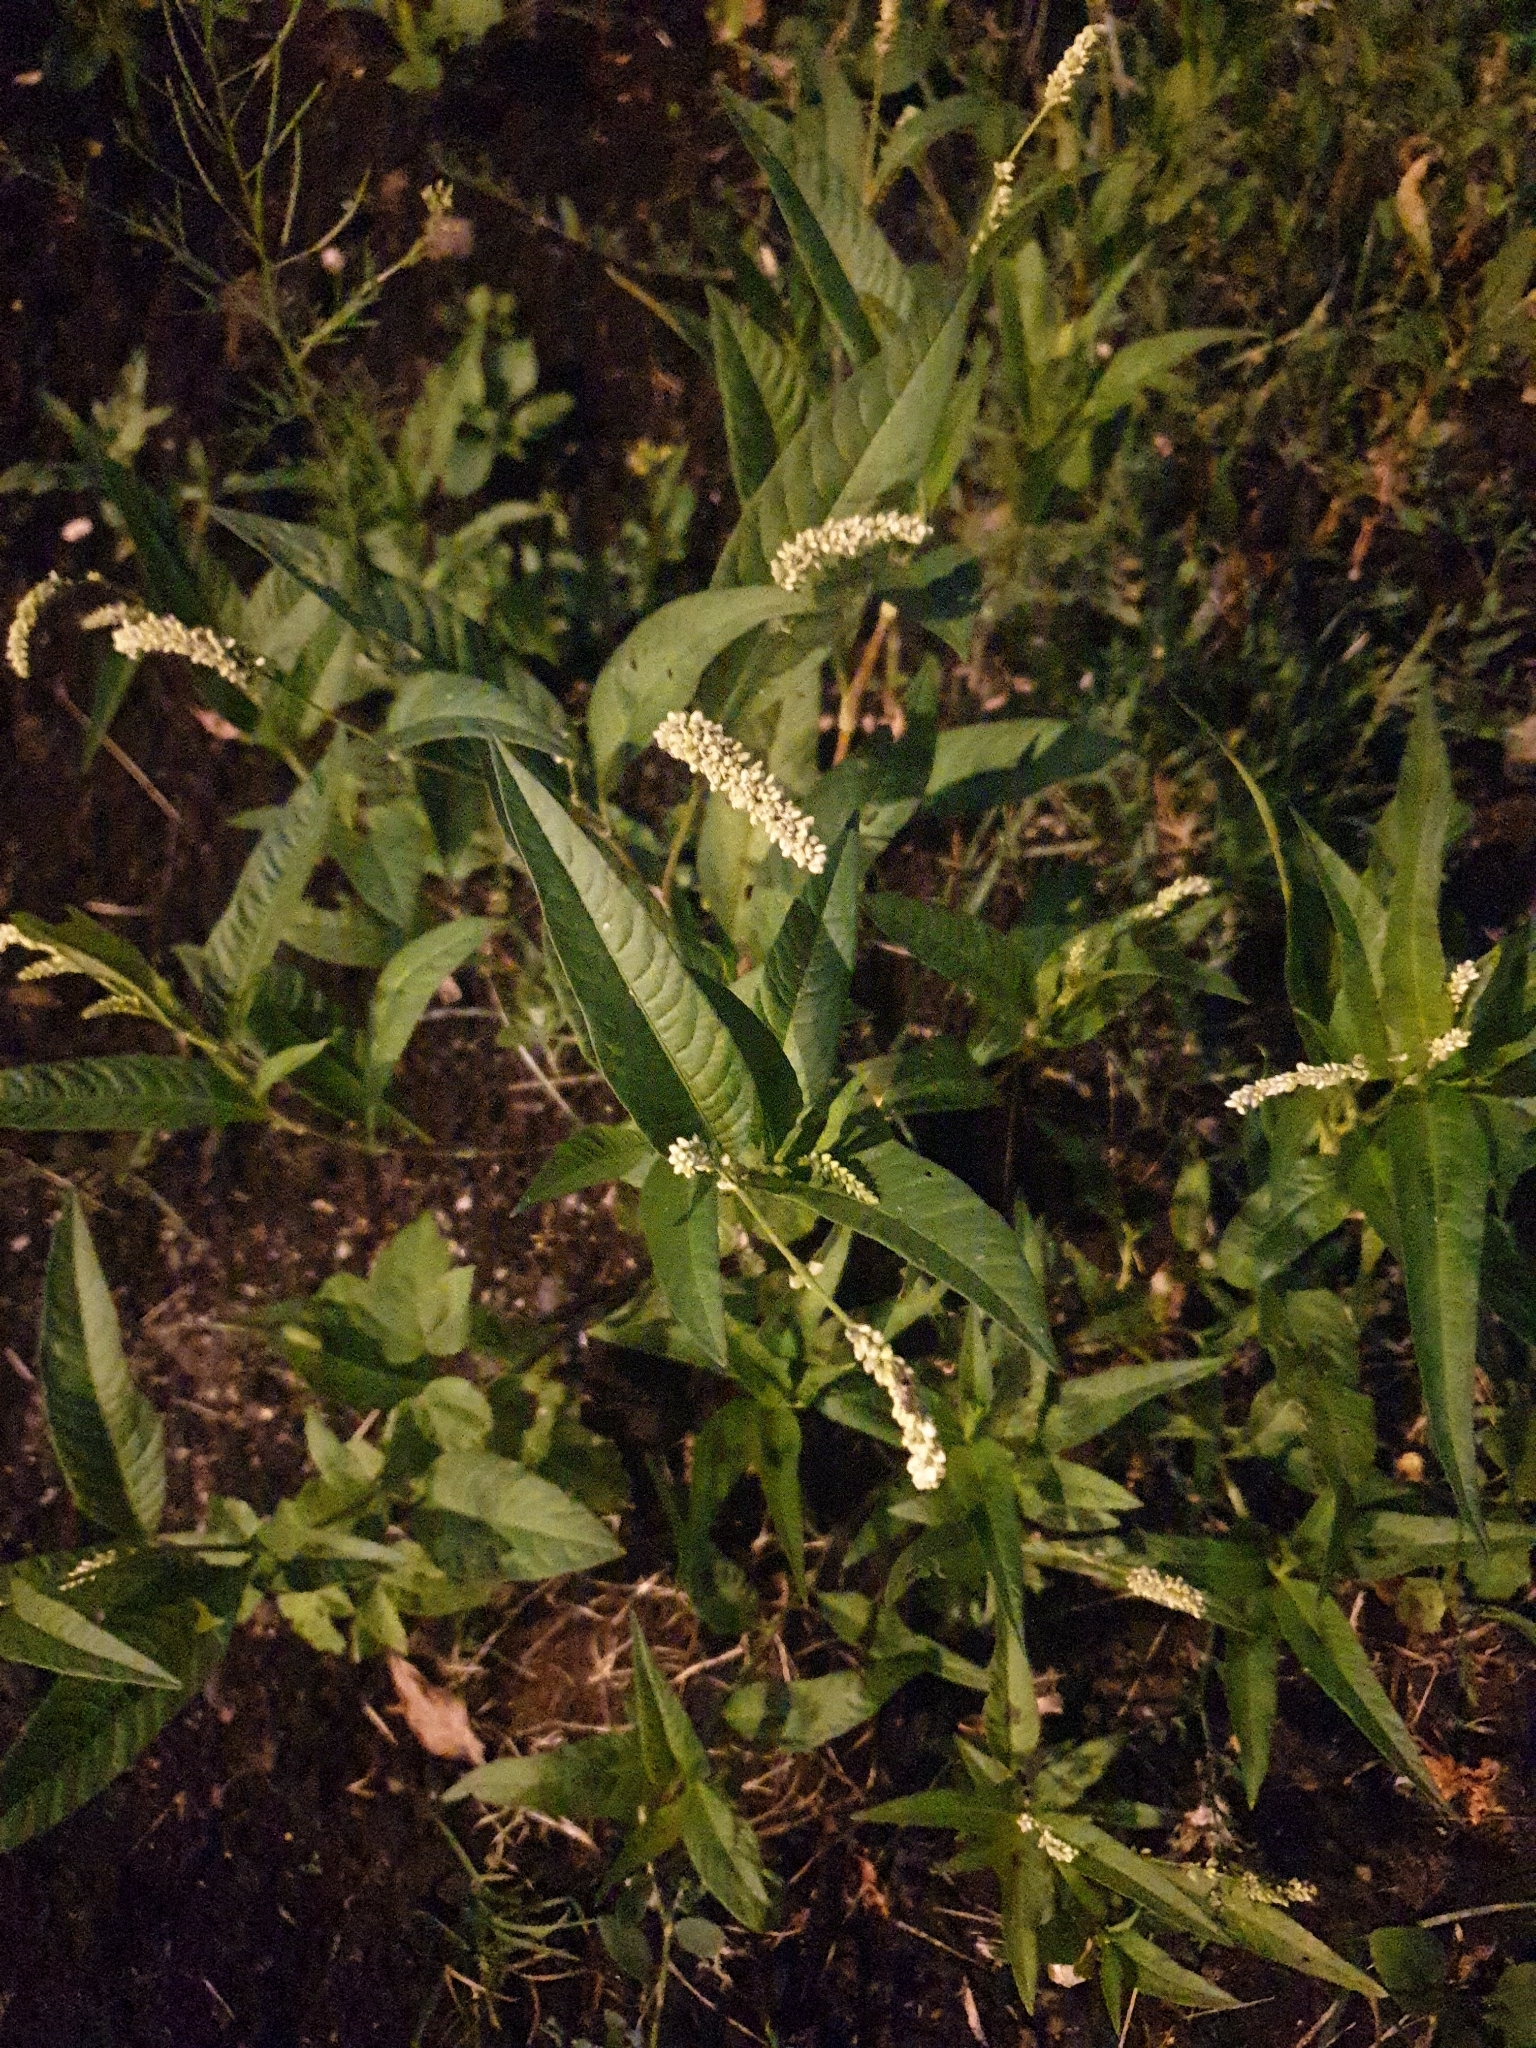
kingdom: Plantae
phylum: Tracheophyta
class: Magnoliopsida
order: Caryophyllales
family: Polygonaceae
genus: Persicaria
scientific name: Persicaria lapathifolia
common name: Curlytop knotweed
